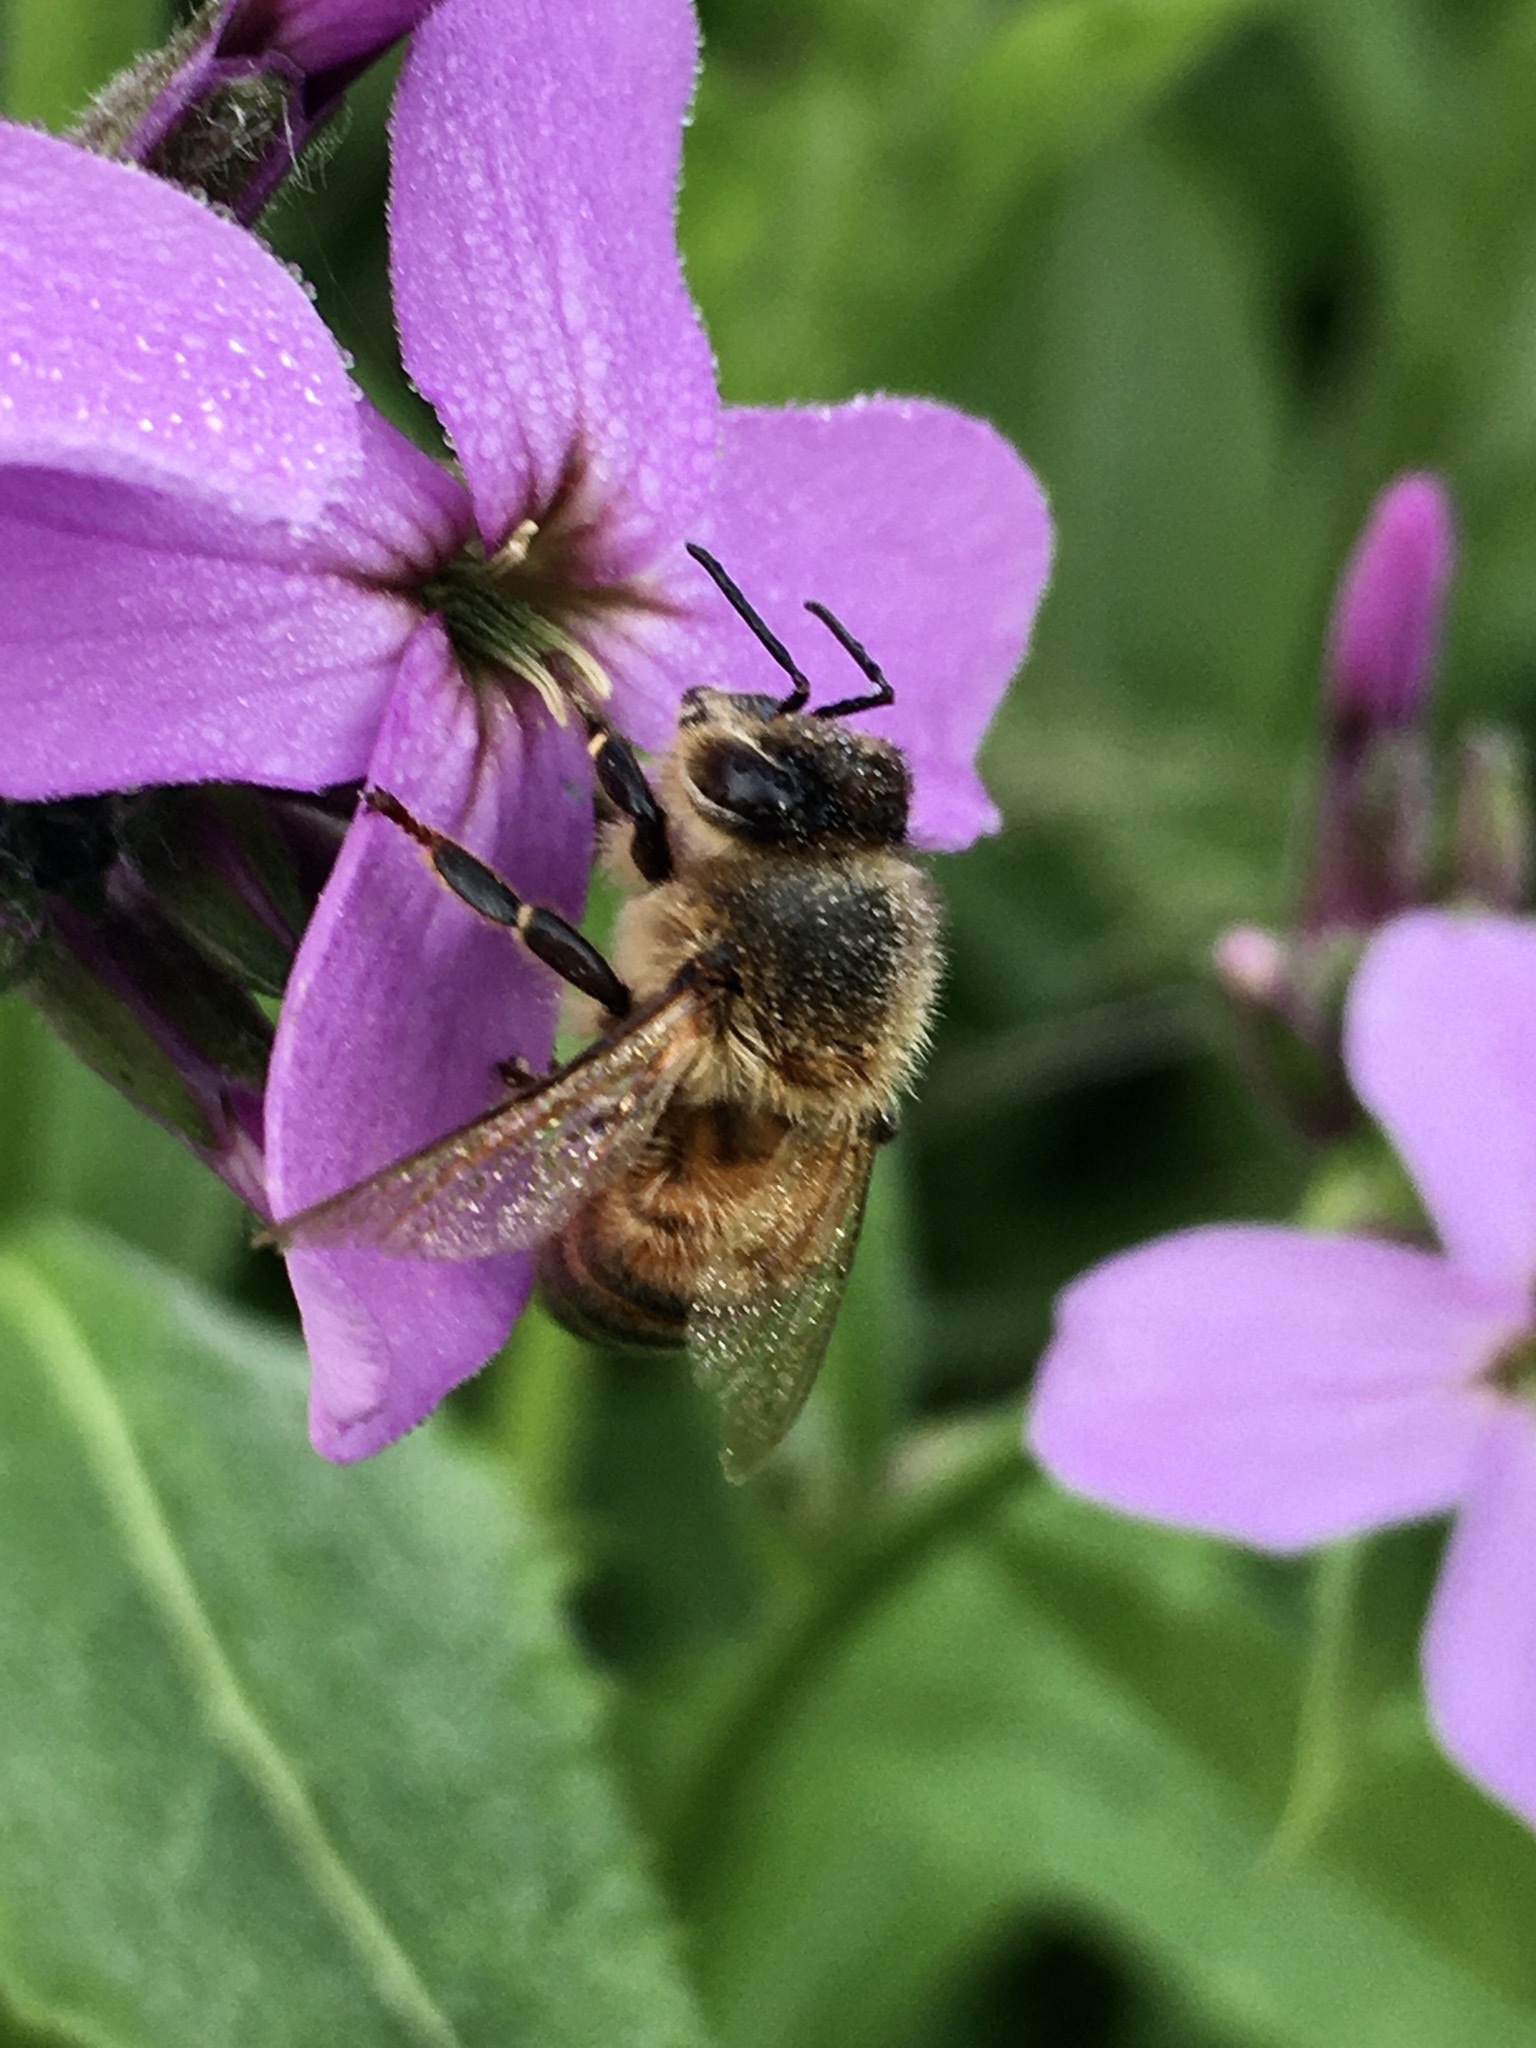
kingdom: Animalia
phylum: Arthropoda
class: Insecta
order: Hymenoptera
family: Apidae
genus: Apis
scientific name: Apis mellifera
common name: Honey bee
